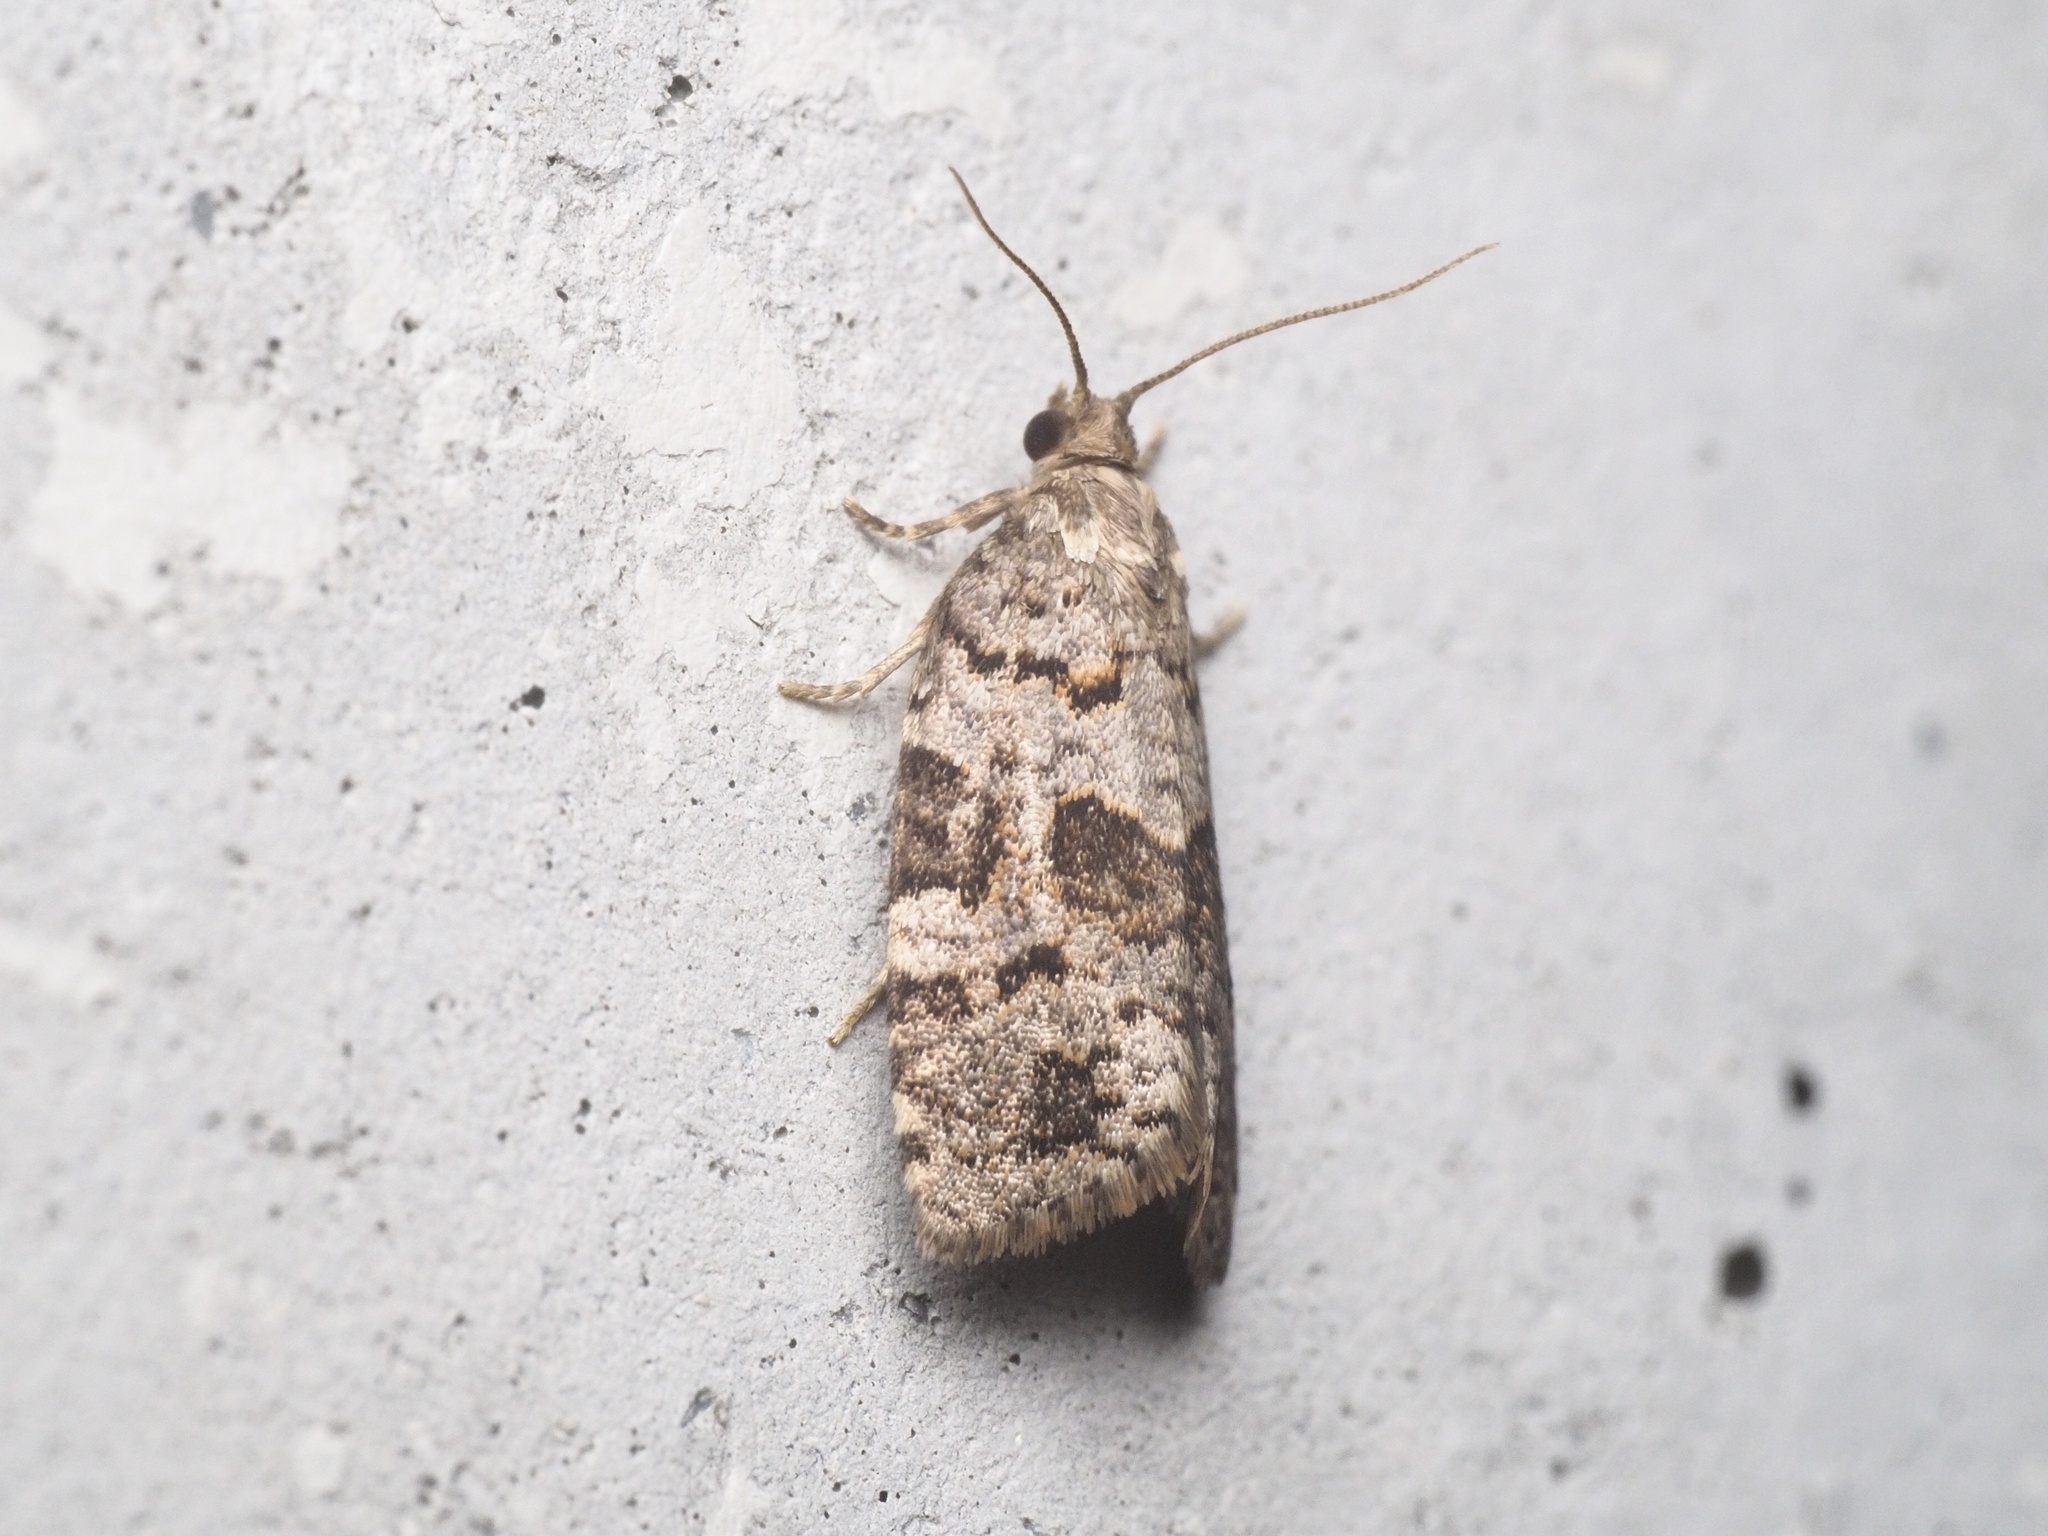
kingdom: Animalia
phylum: Arthropoda
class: Insecta
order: Lepidoptera
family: Tortricidae
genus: Dichelia
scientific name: Dichelia histrionana
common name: Tortricid moth
